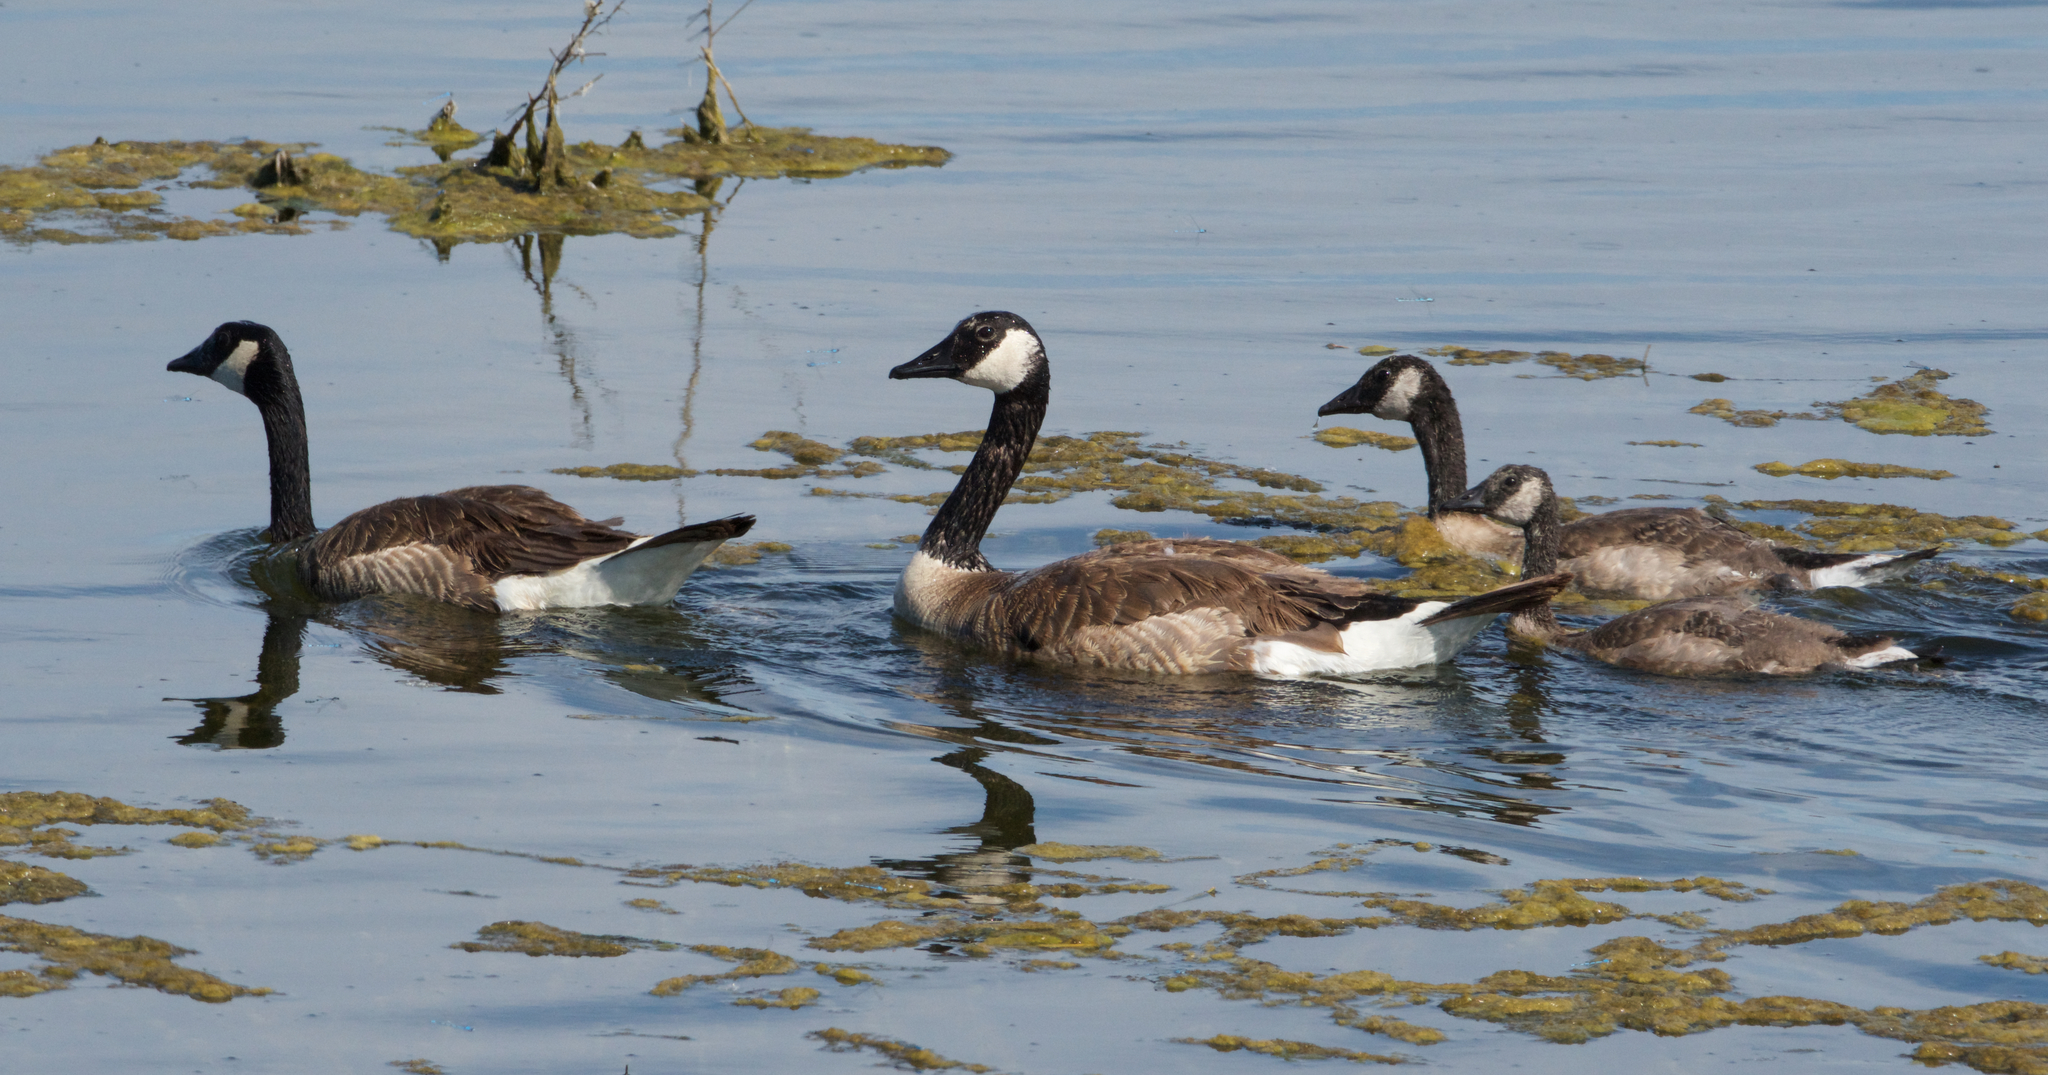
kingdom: Animalia
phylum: Chordata
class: Aves
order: Anseriformes
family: Anatidae
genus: Branta
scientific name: Branta canadensis
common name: Canada goose
